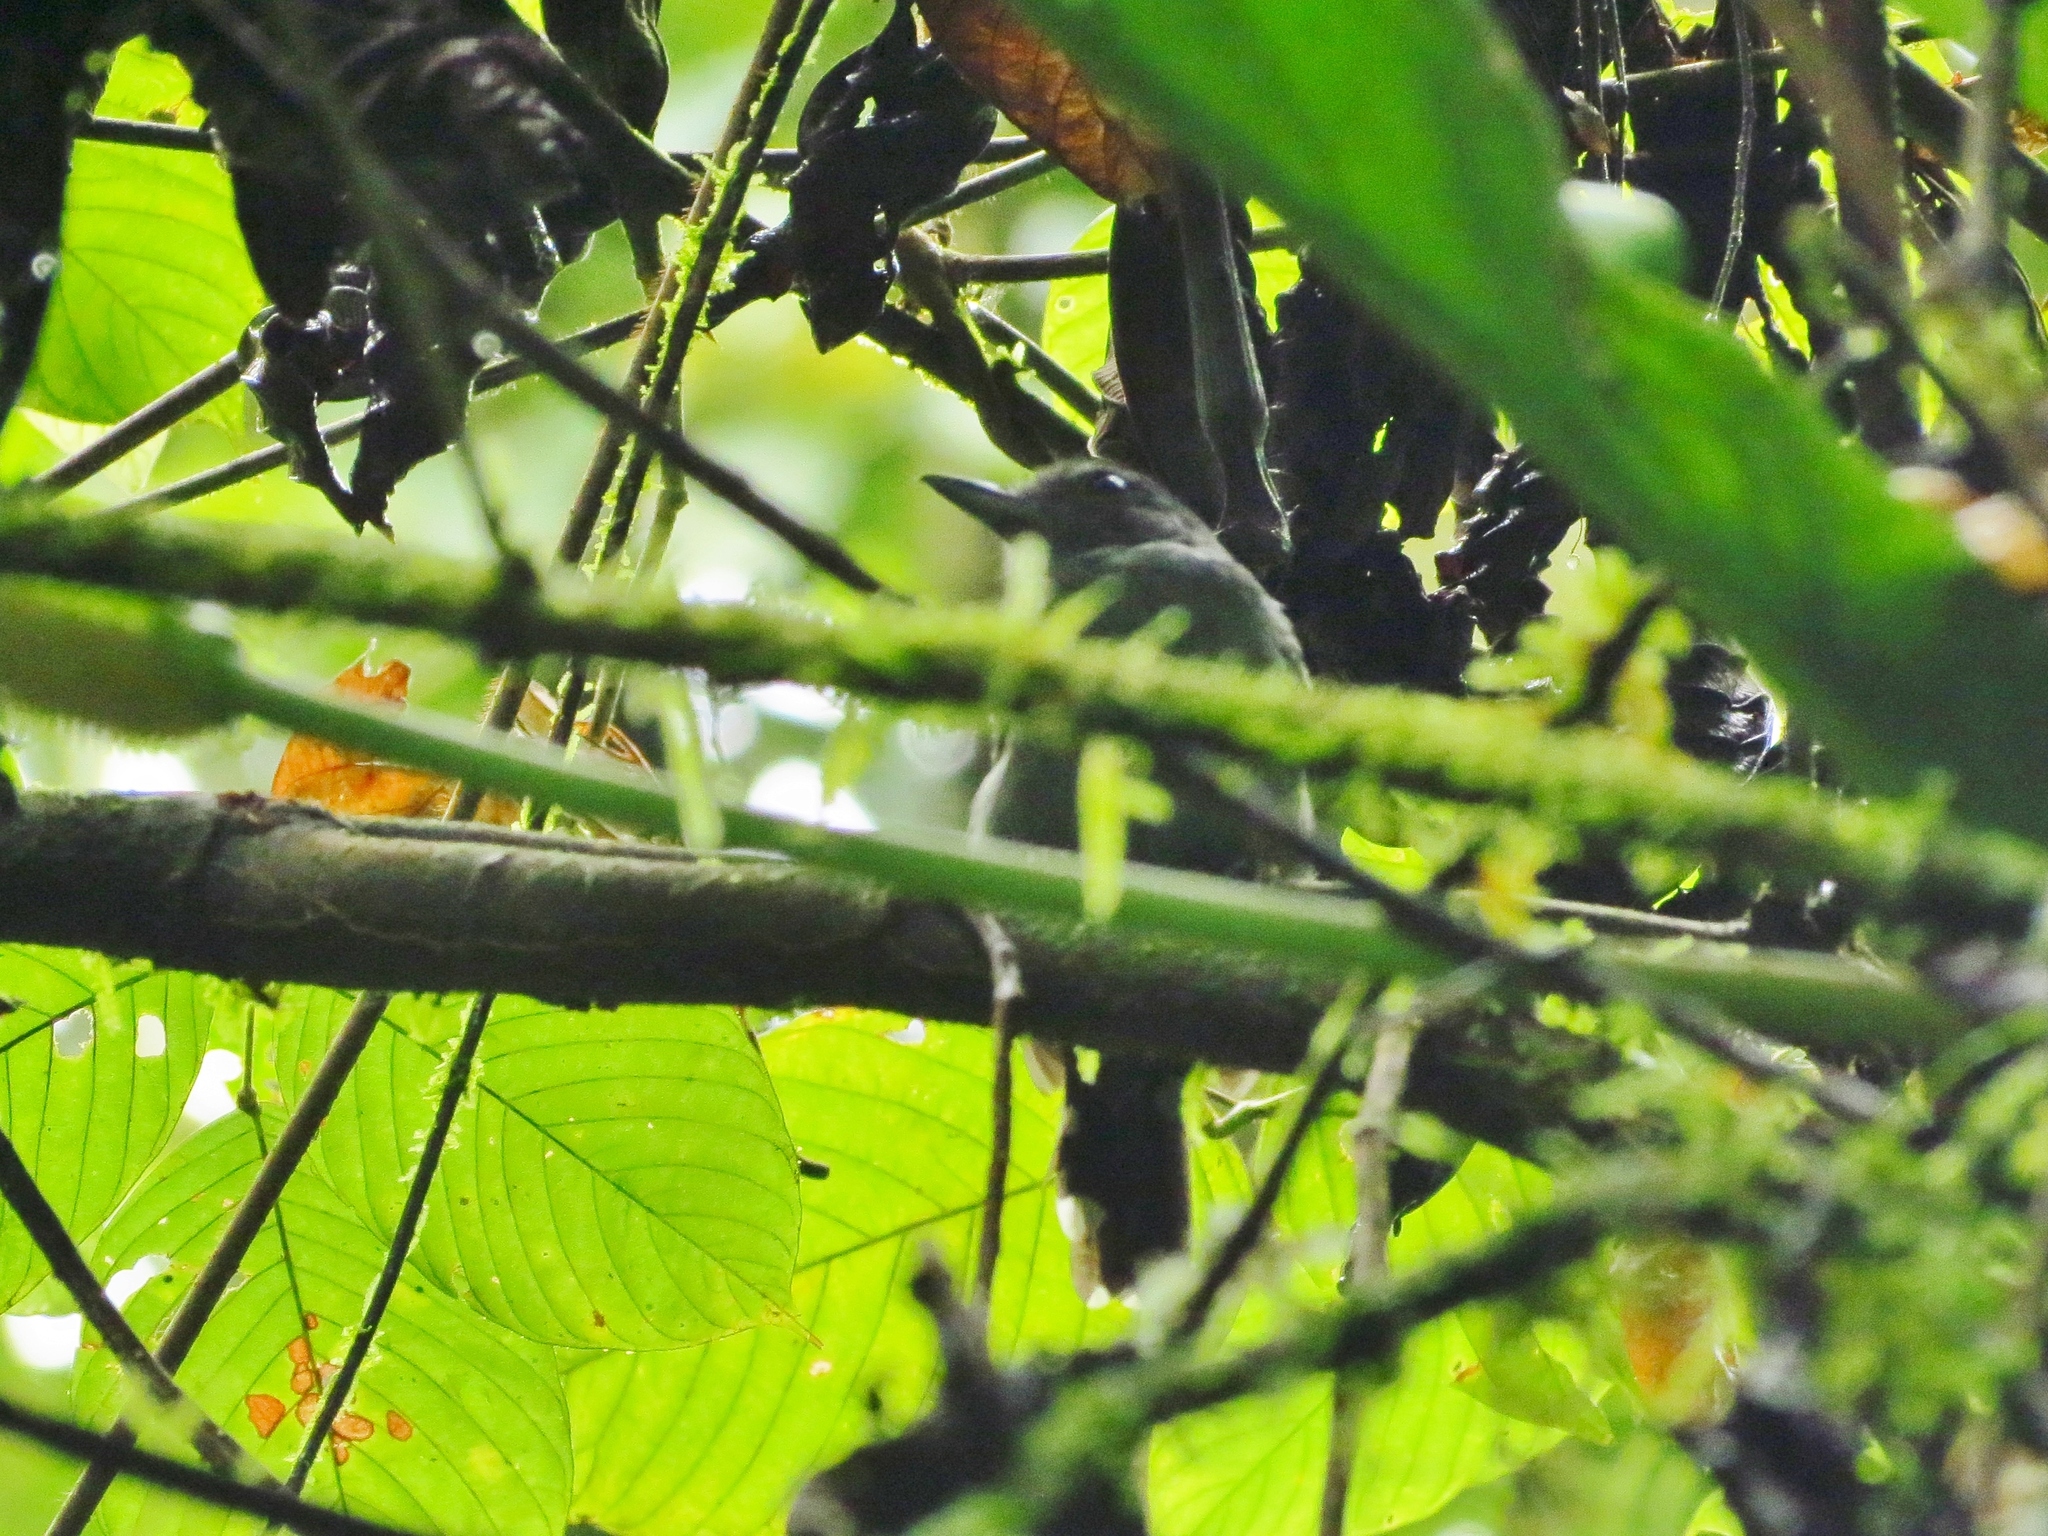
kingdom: Animalia
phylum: Chordata
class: Aves
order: Passeriformes
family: Thamnophilidae
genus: Thamnophilus
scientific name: Thamnophilus atrinucha
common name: Black-crowned antshrike
